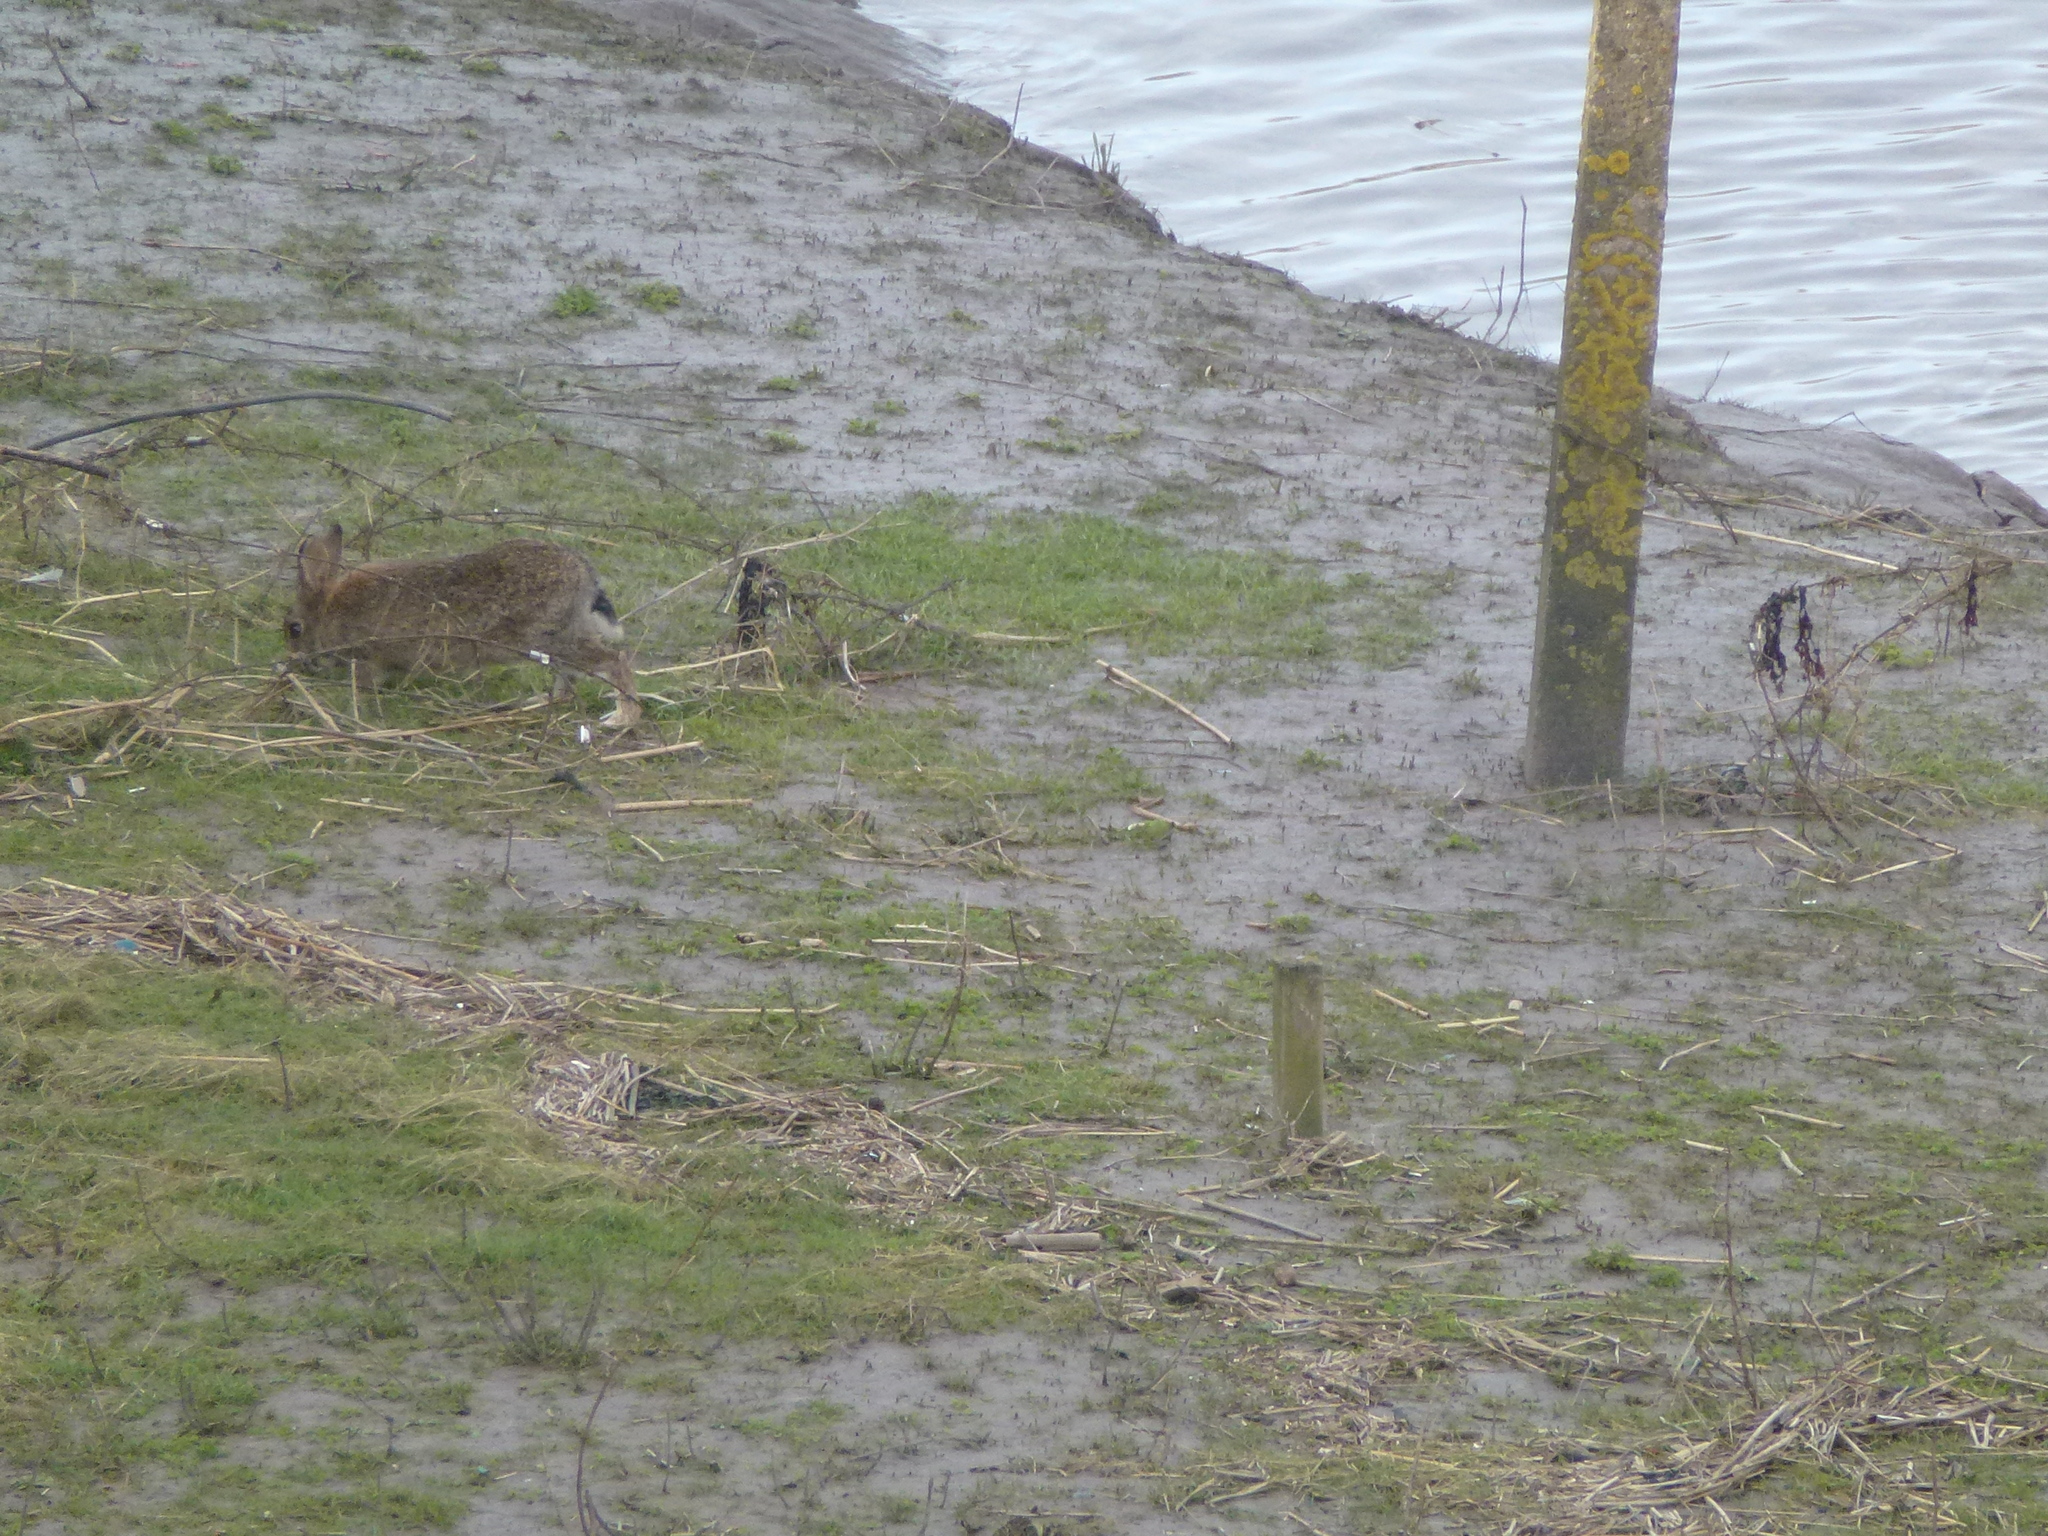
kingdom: Animalia
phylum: Chordata
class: Mammalia
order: Lagomorpha
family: Leporidae
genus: Oryctolagus
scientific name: Oryctolagus cuniculus
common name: European rabbit
